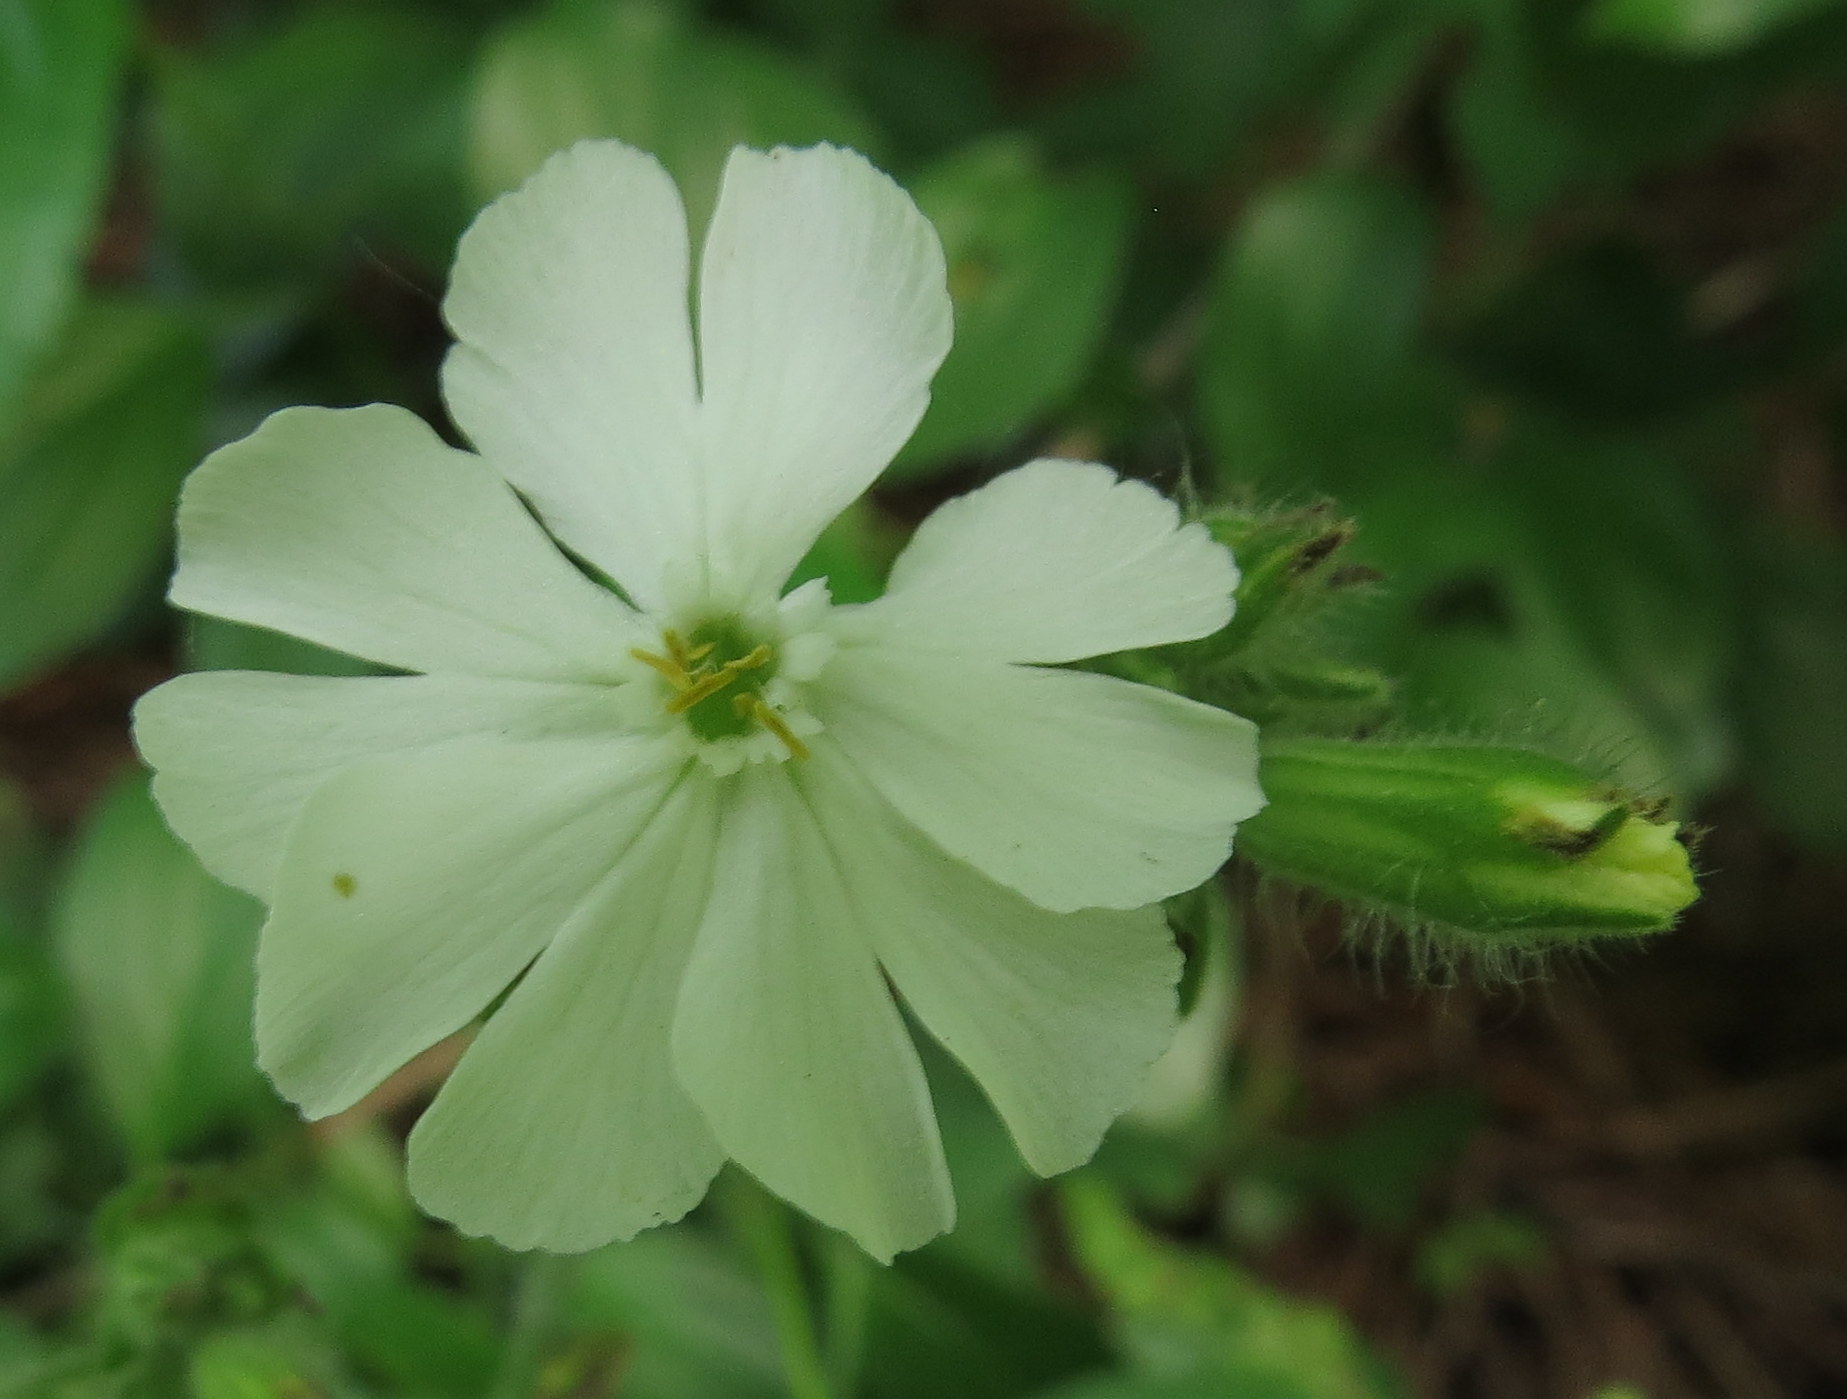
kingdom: Plantae
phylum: Tracheophyta
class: Magnoliopsida
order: Caryophyllales
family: Caryophyllaceae
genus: Silene
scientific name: Silene latifolia
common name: White campion
